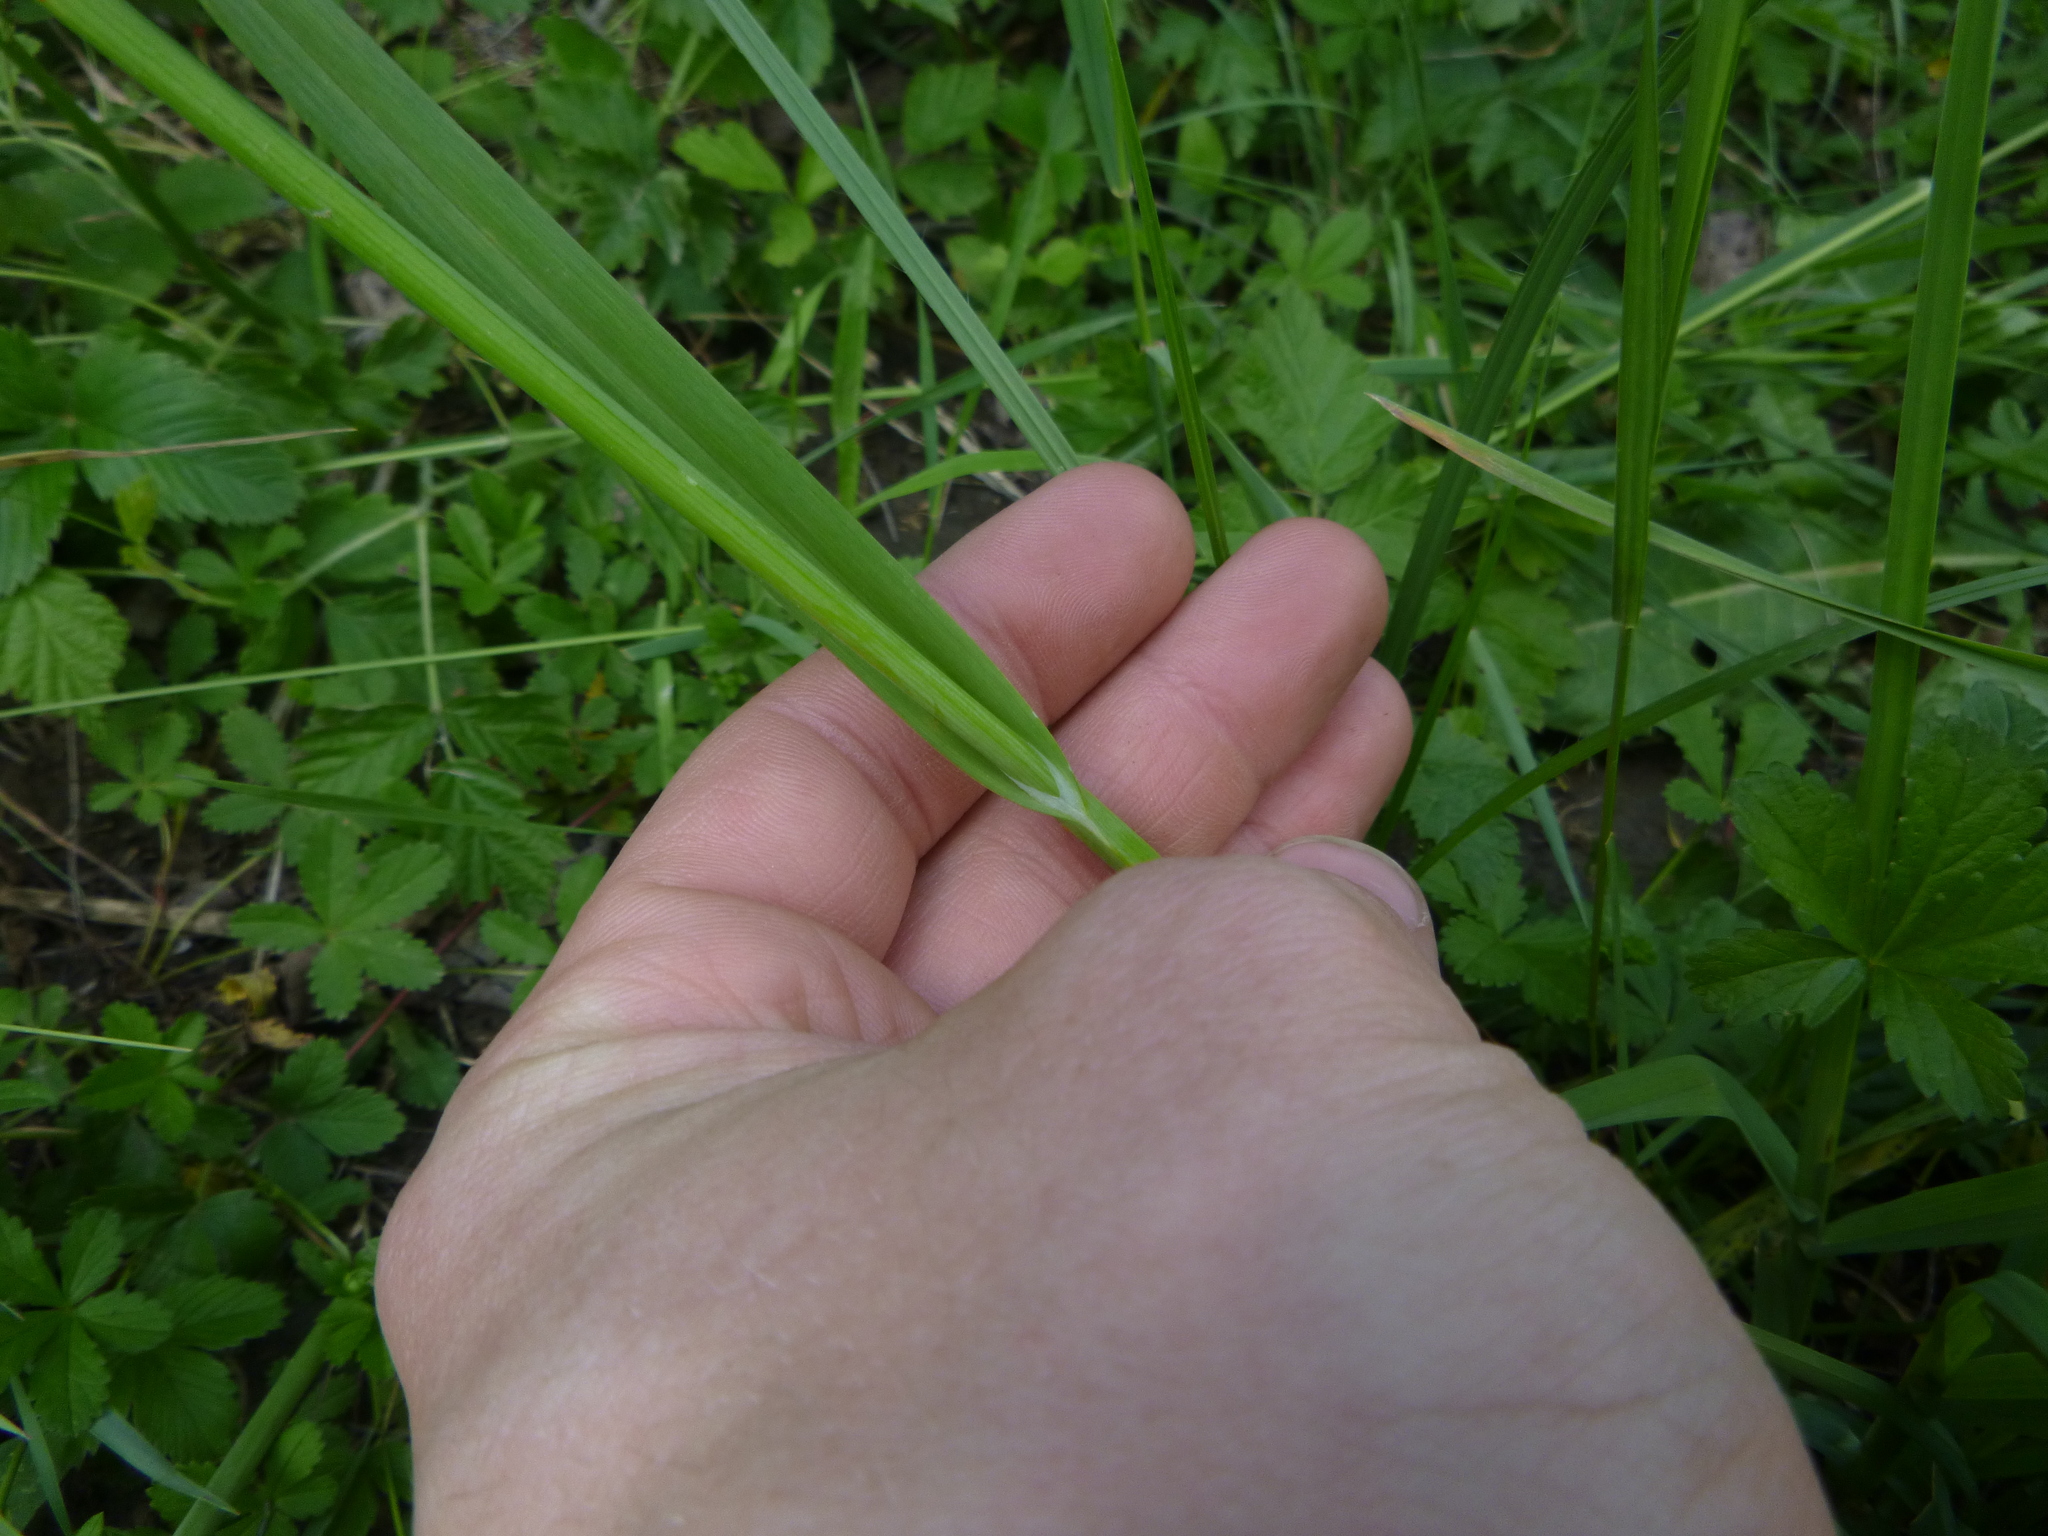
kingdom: Plantae
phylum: Tracheophyta
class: Liliopsida
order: Asparagales
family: Amaryllidaceae
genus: Allium
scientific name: Allium scorodoprasum
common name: Sand leek
